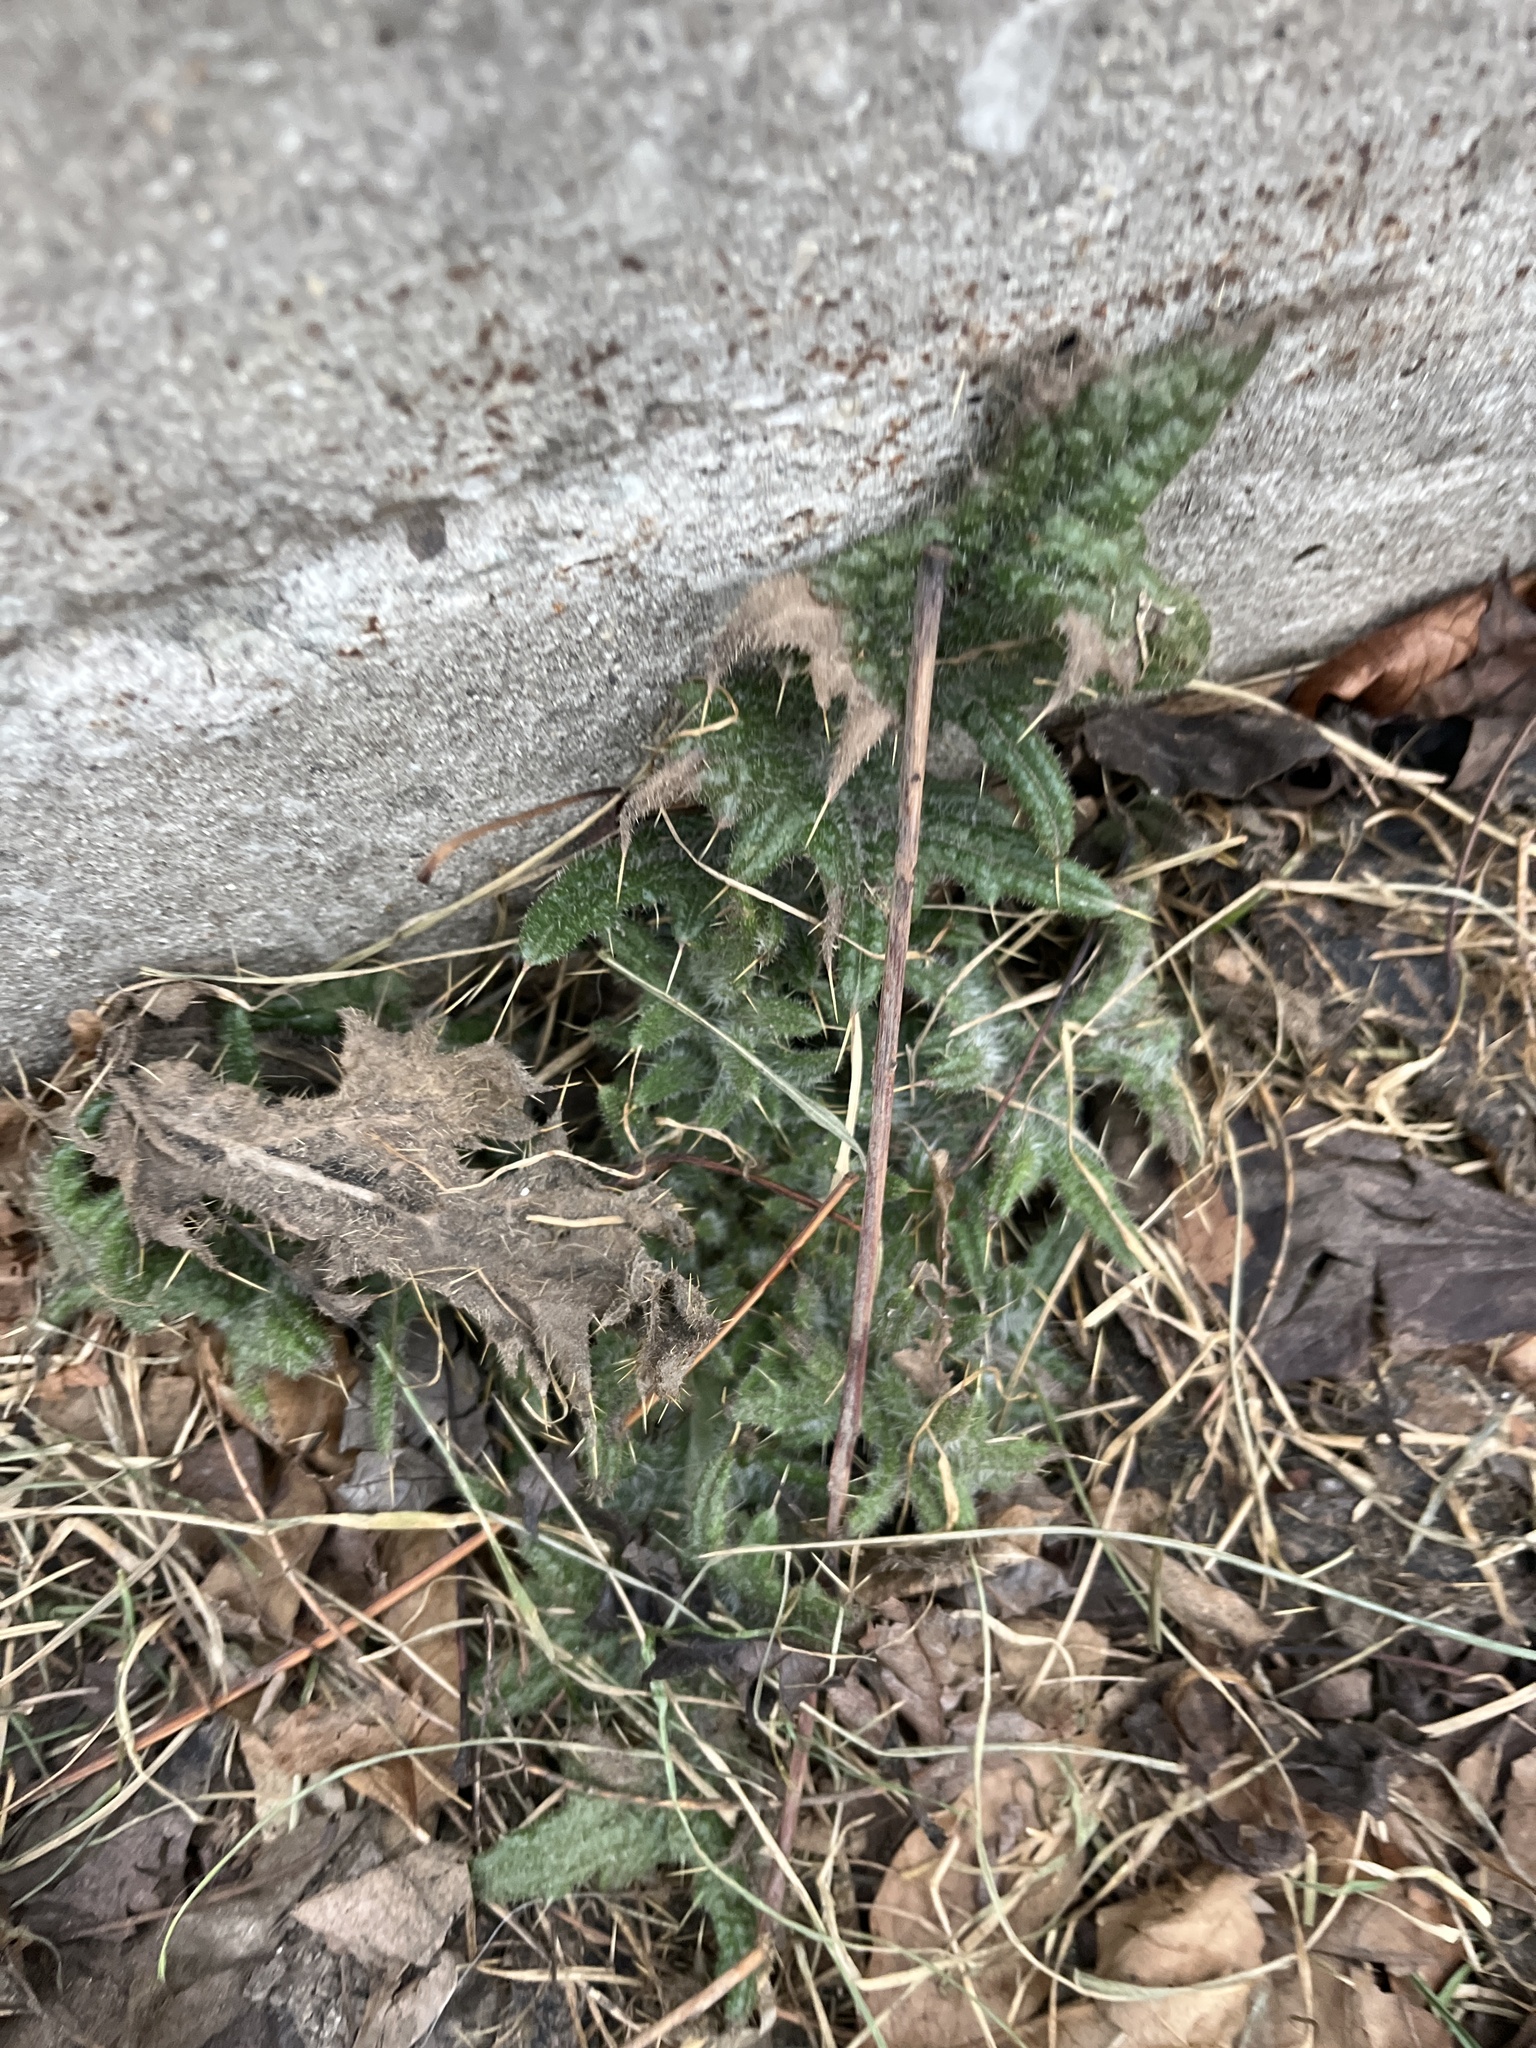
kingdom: Plantae
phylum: Tracheophyta
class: Magnoliopsida
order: Asterales
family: Asteraceae
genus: Cirsium
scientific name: Cirsium vulgare
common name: Bull thistle
